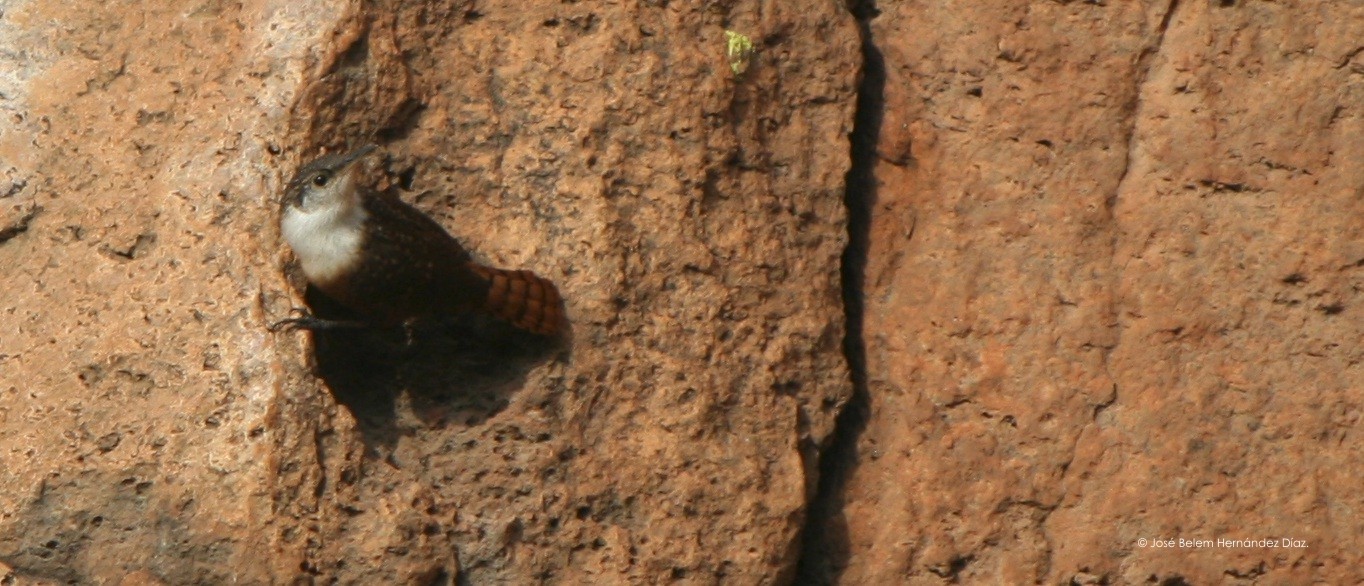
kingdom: Animalia
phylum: Chordata
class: Aves
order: Passeriformes
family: Troglodytidae
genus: Catherpes
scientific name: Catherpes mexicanus
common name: Canyon wren
